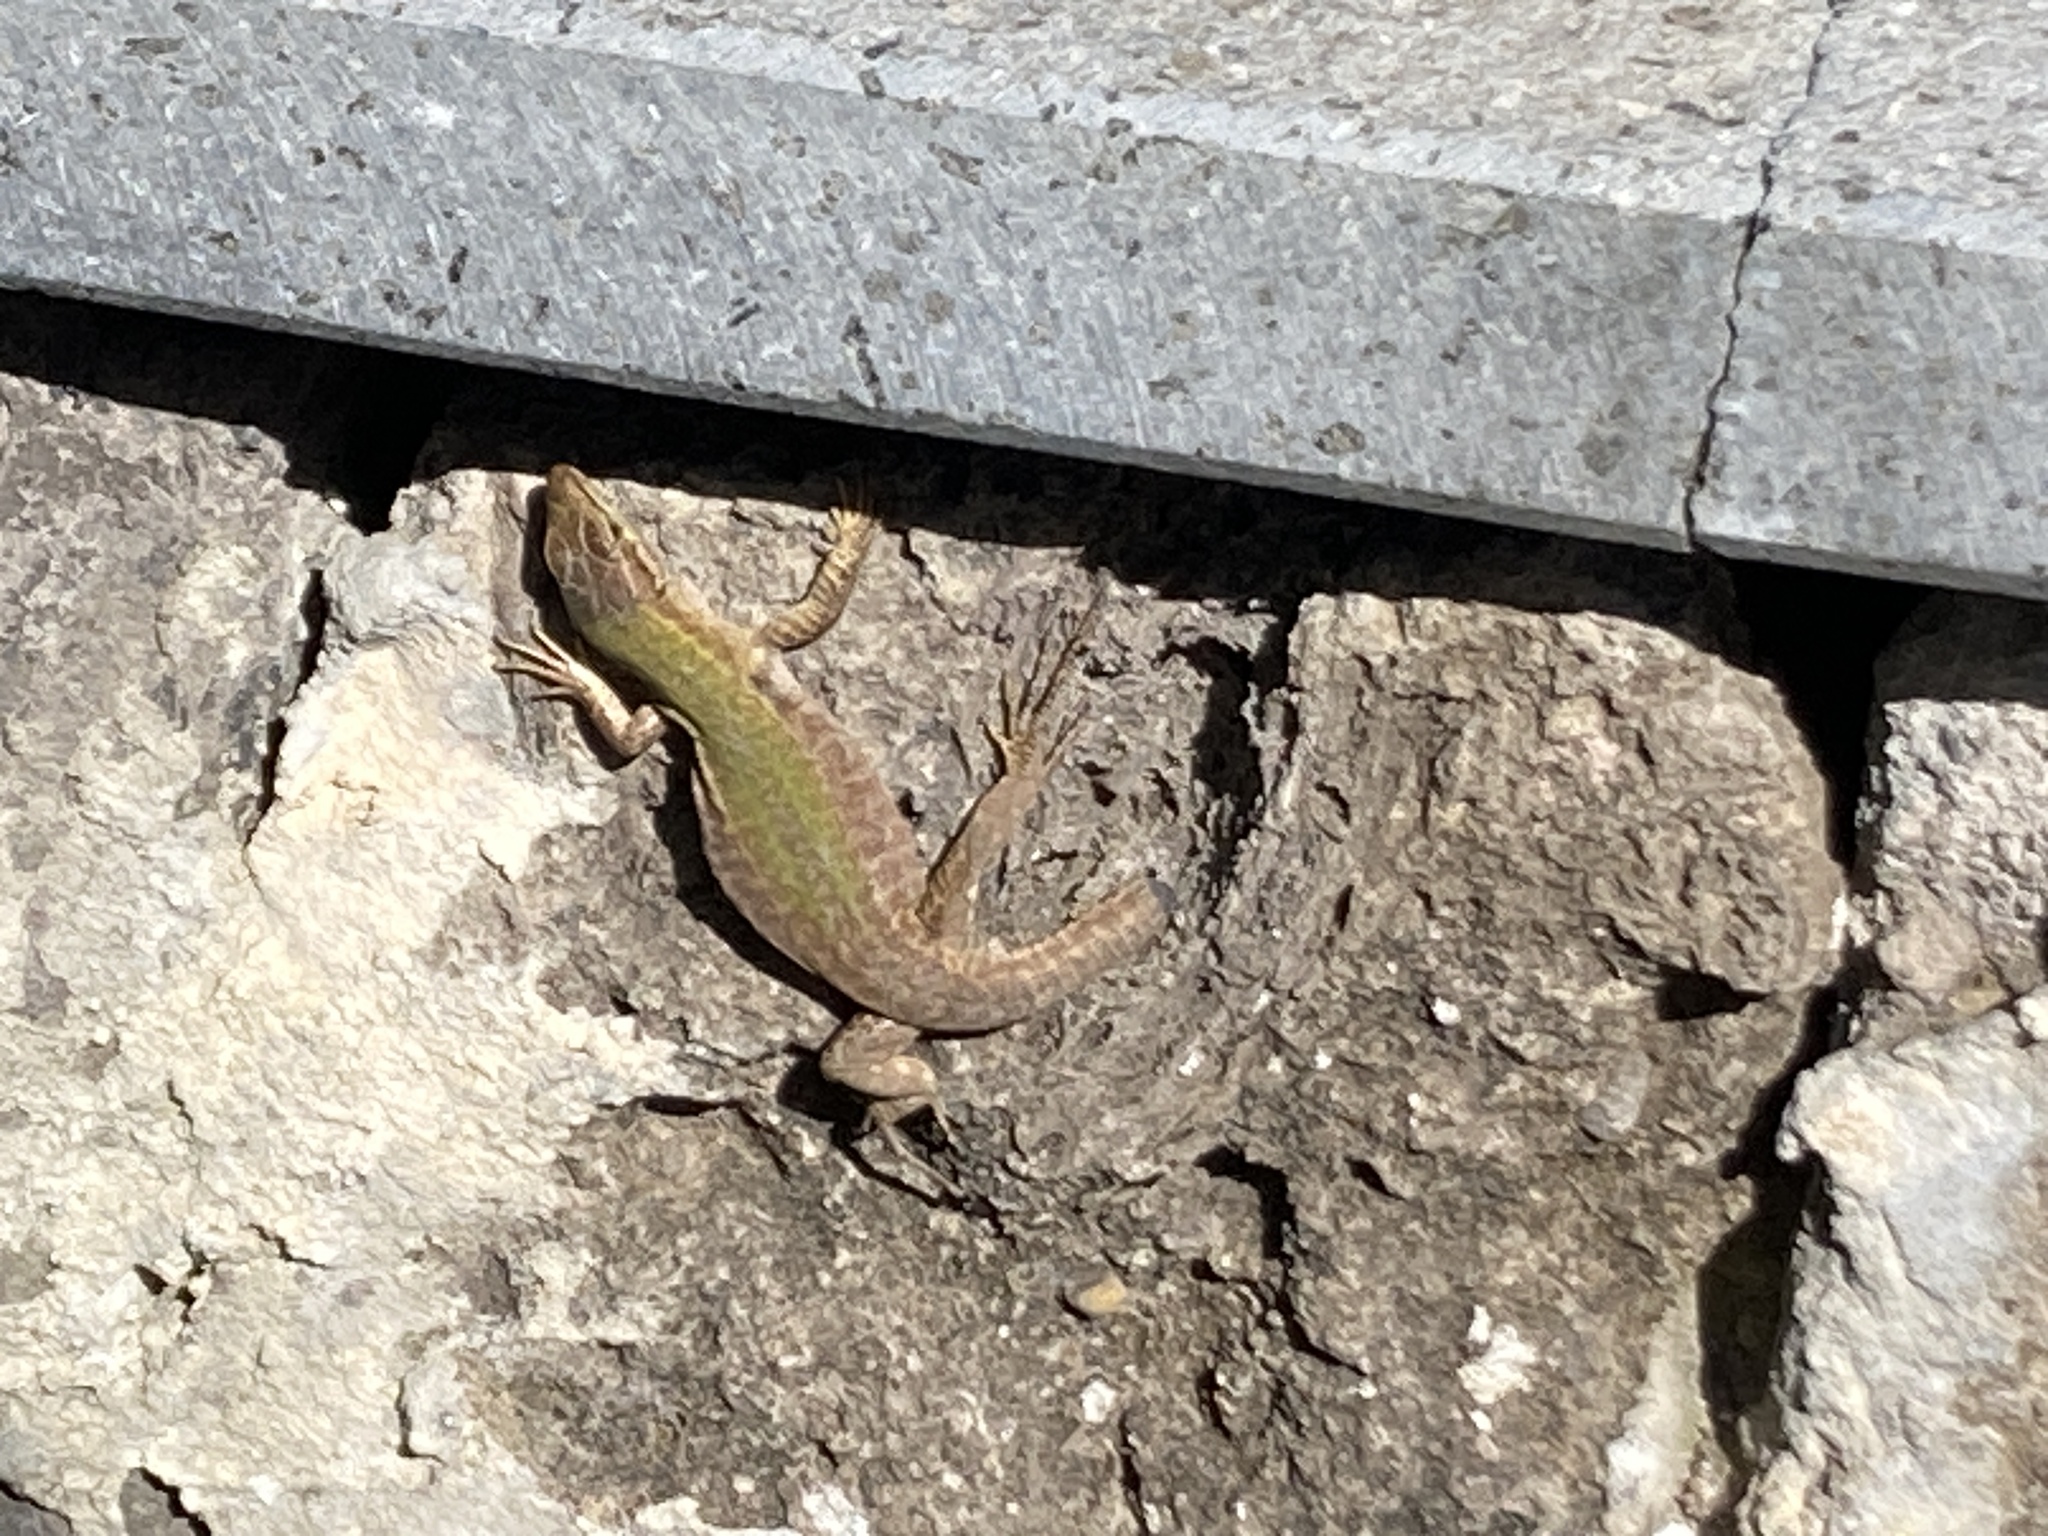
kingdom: Animalia
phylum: Chordata
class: Squamata
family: Lacertidae
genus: Podarcis
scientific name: Podarcis siculus
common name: Italian wall lizard
